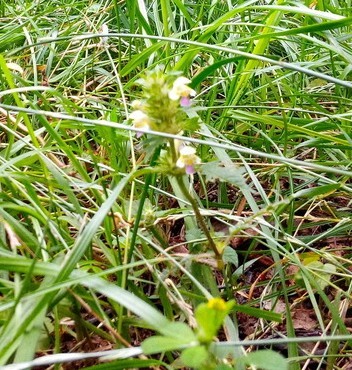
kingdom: Plantae
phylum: Tracheophyta
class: Magnoliopsida
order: Lamiales
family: Lamiaceae
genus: Galeopsis
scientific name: Galeopsis speciosa
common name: Large-flowered hemp-nettle
